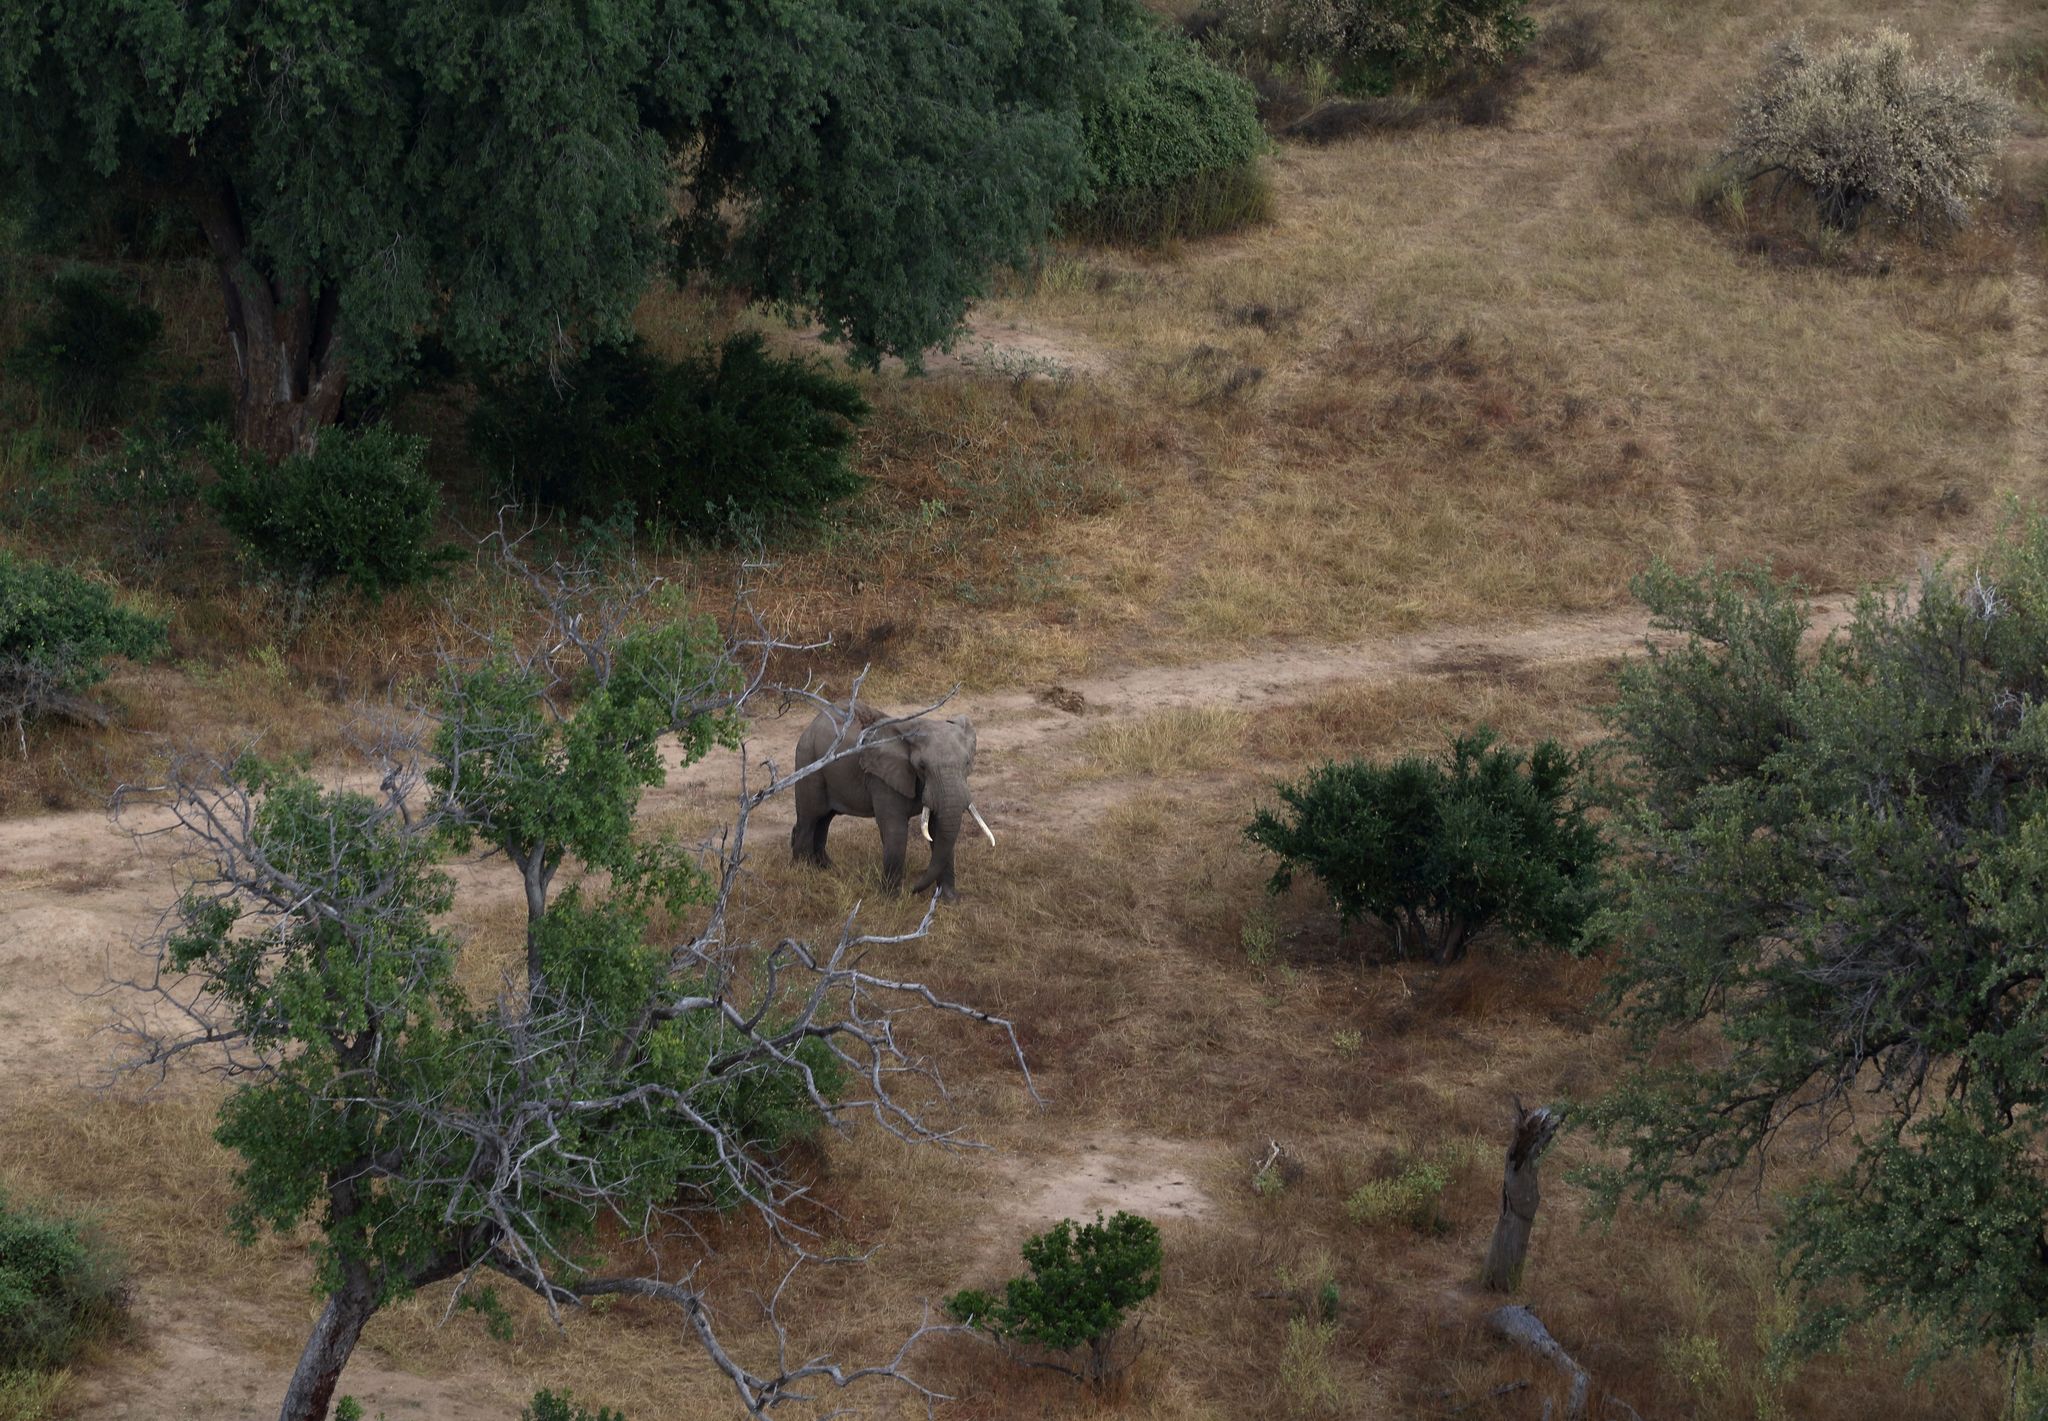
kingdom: Animalia
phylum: Chordata
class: Mammalia
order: Proboscidea
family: Elephantidae
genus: Loxodonta
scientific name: Loxodonta africana
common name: African elephant
